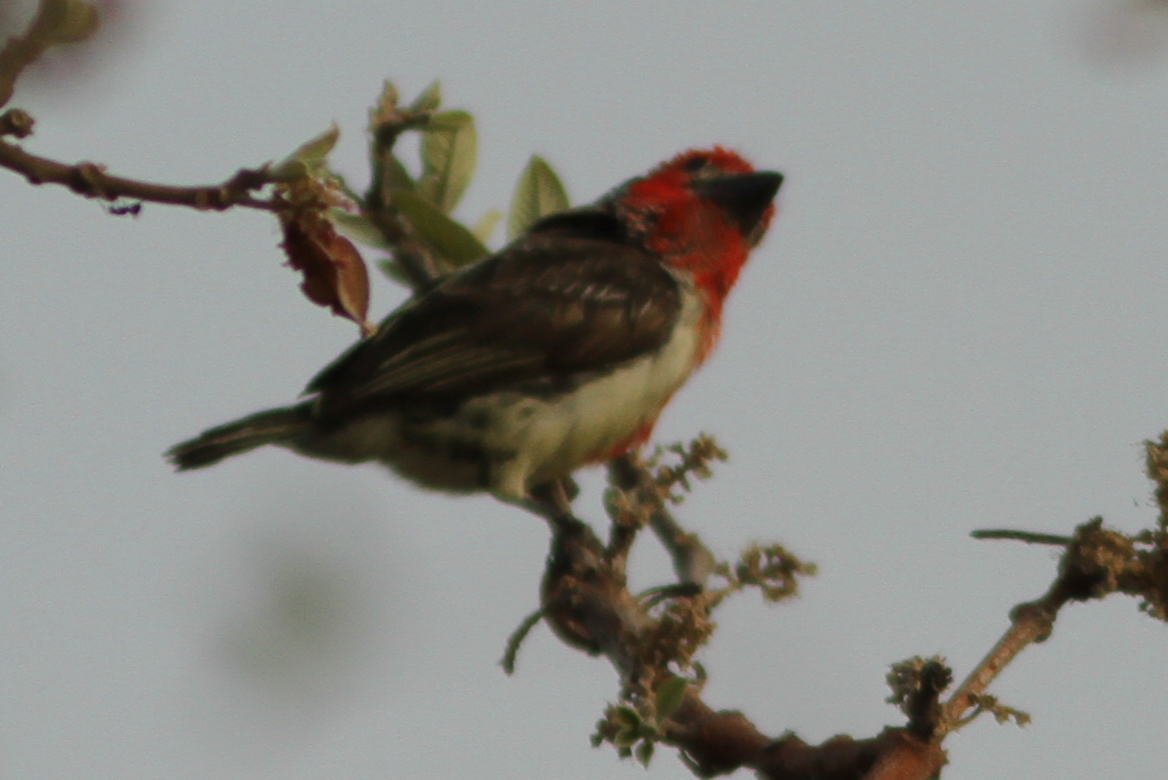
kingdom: Animalia
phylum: Chordata
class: Aves
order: Piciformes
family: Lybiidae
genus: Lybius
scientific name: Lybius vieilloti
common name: Vieillot's barbet
